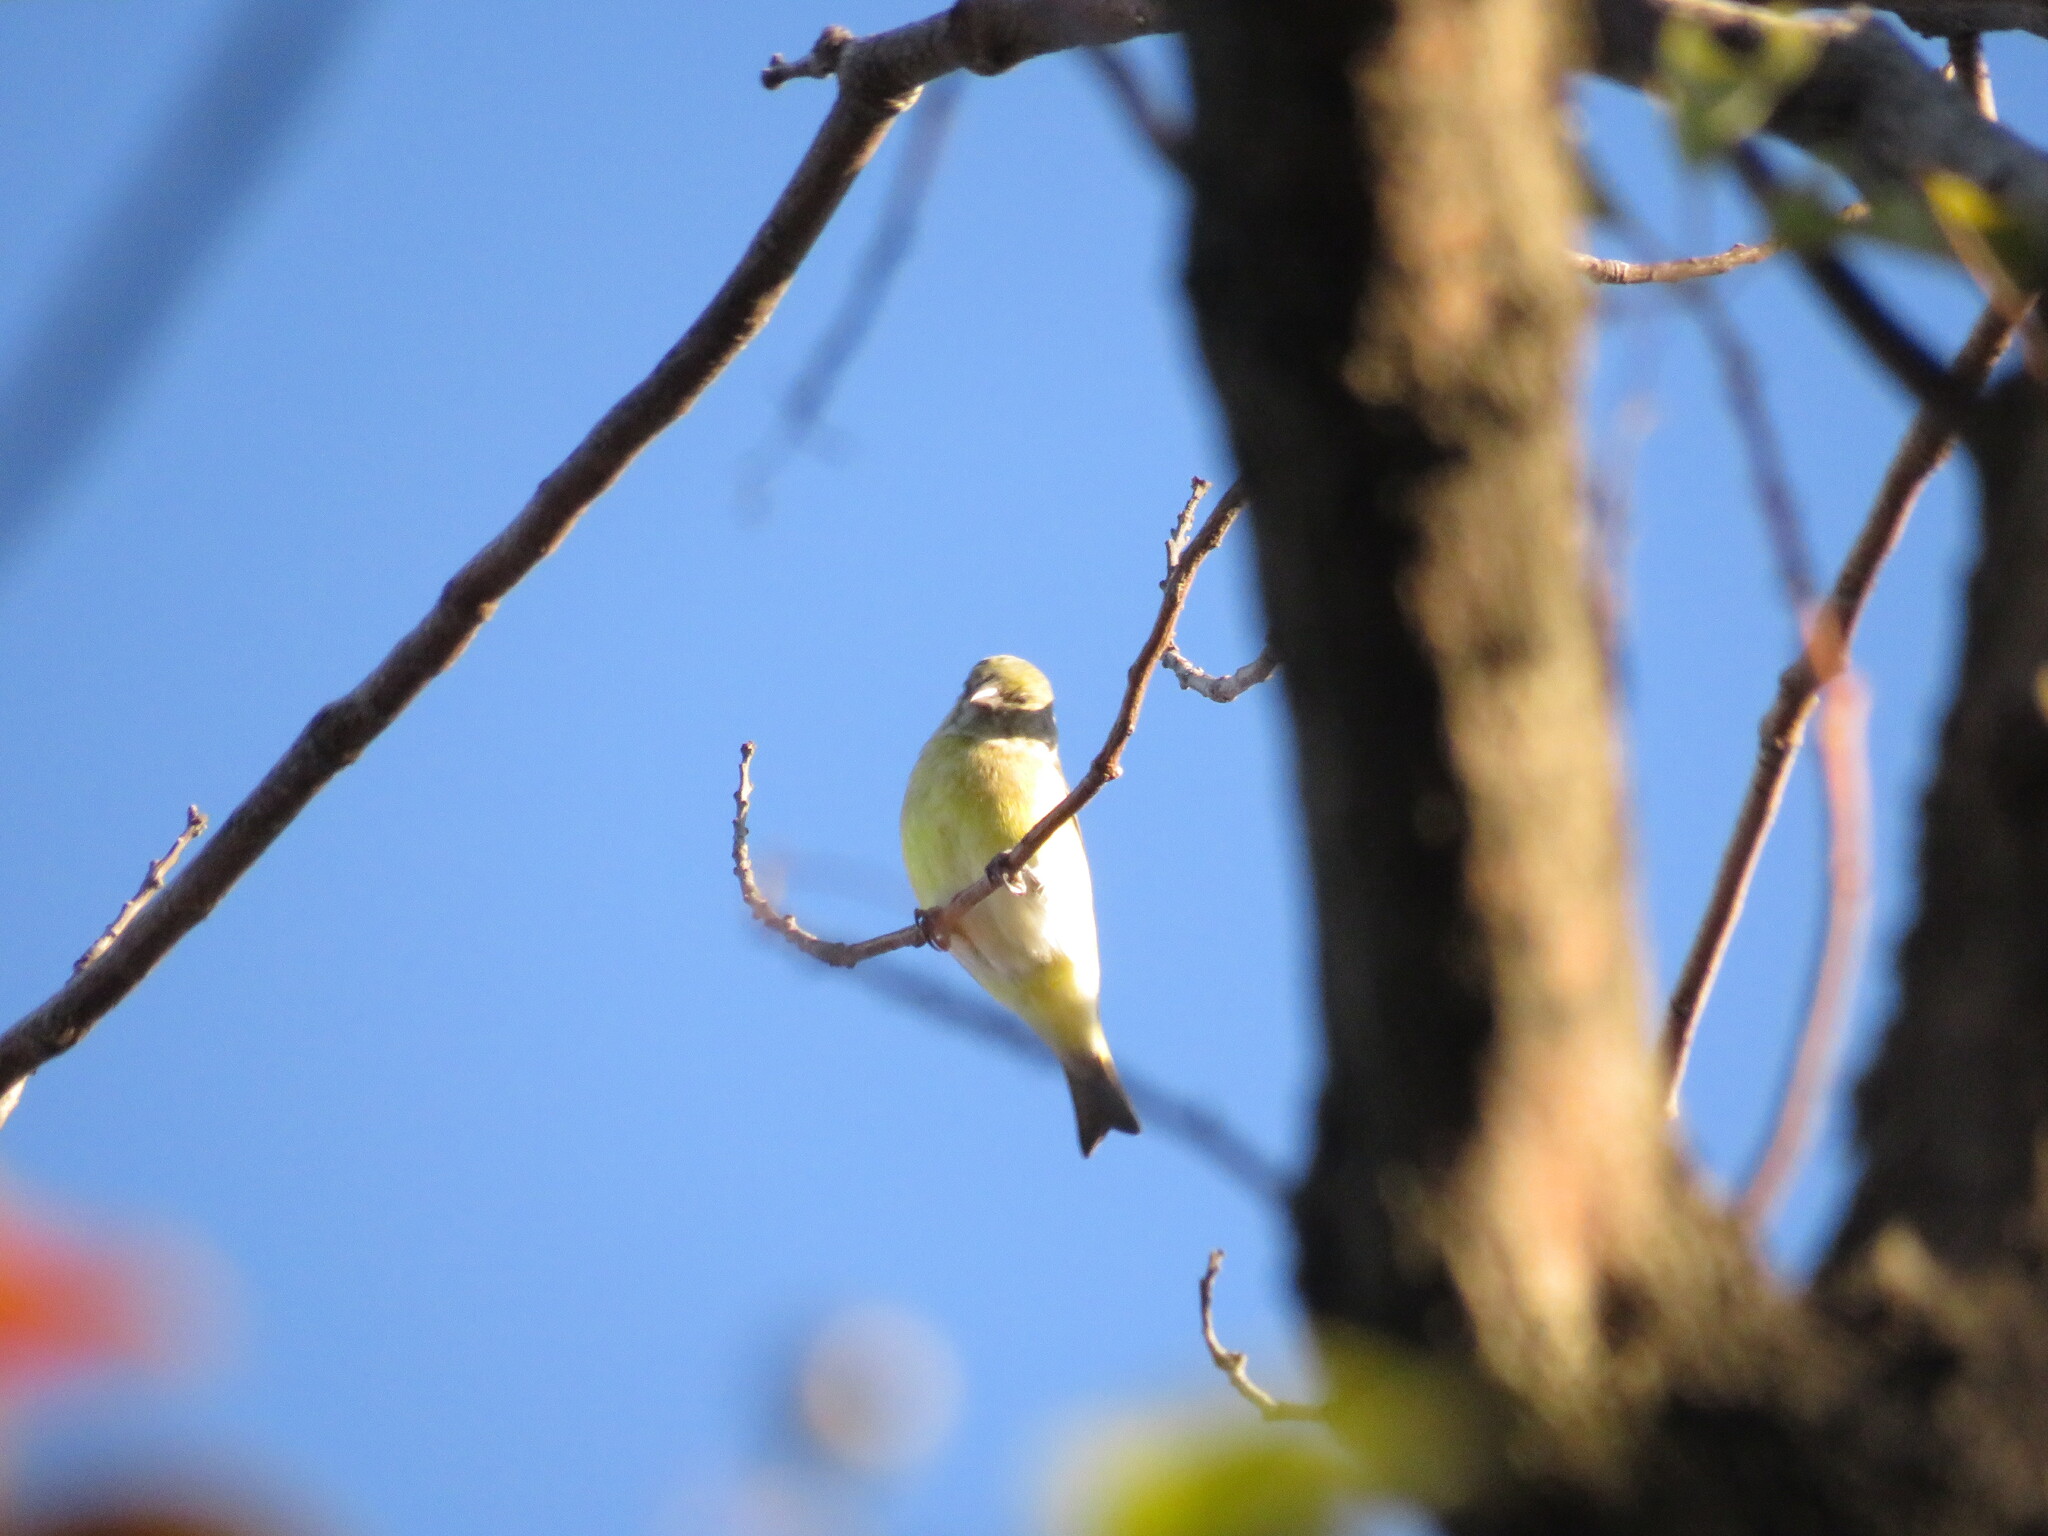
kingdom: Animalia
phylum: Chordata
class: Aves
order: Passeriformes
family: Fringillidae
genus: Spinus
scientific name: Spinus magellanicus
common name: Hooded siskin
